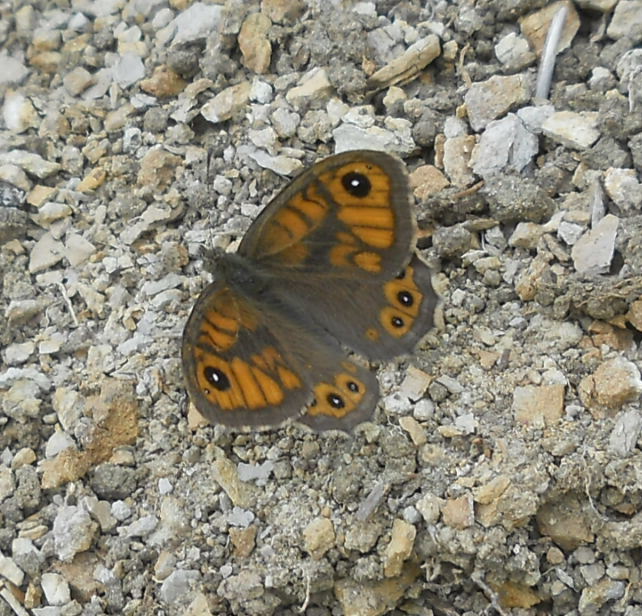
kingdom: Animalia
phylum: Arthropoda
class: Insecta
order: Lepidoptera
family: Nymphalidae
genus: Pararge
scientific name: Pararge Lasiommata megera
